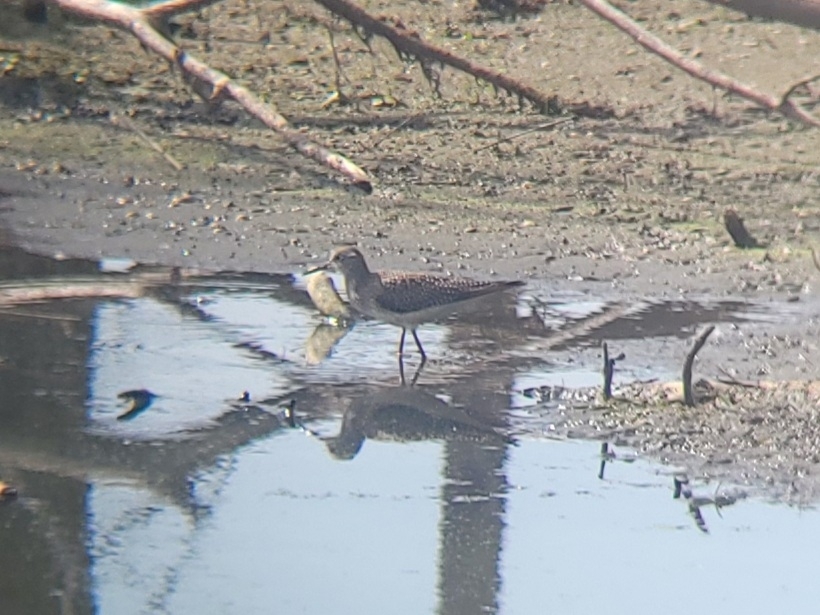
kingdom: Animalia
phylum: Chordata
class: Aves
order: Charadriiformes
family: Scolopacidae
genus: Tringa
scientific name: Tringa flavipes
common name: Lesser yellowlegs
